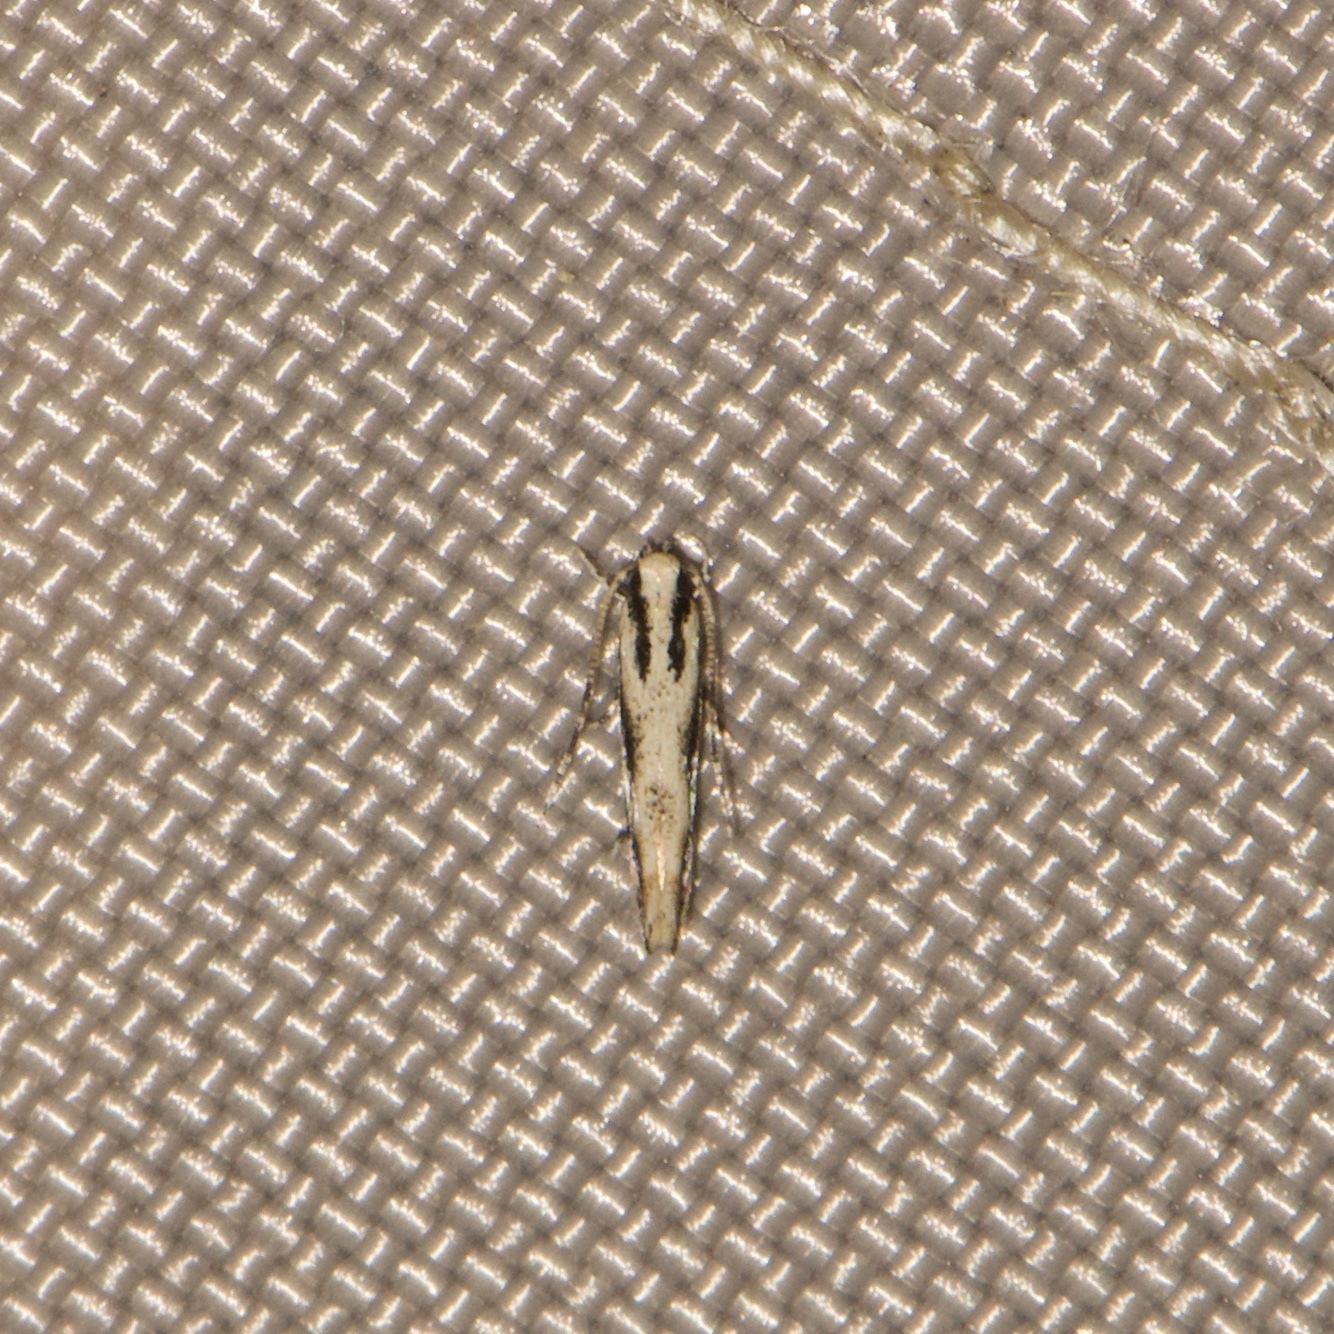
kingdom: Animalia
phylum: Arthropoda
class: Insecta
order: Lepidoptera
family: Cosmopterigidae
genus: Melanocinclis
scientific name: Melanocinclis lineigera
